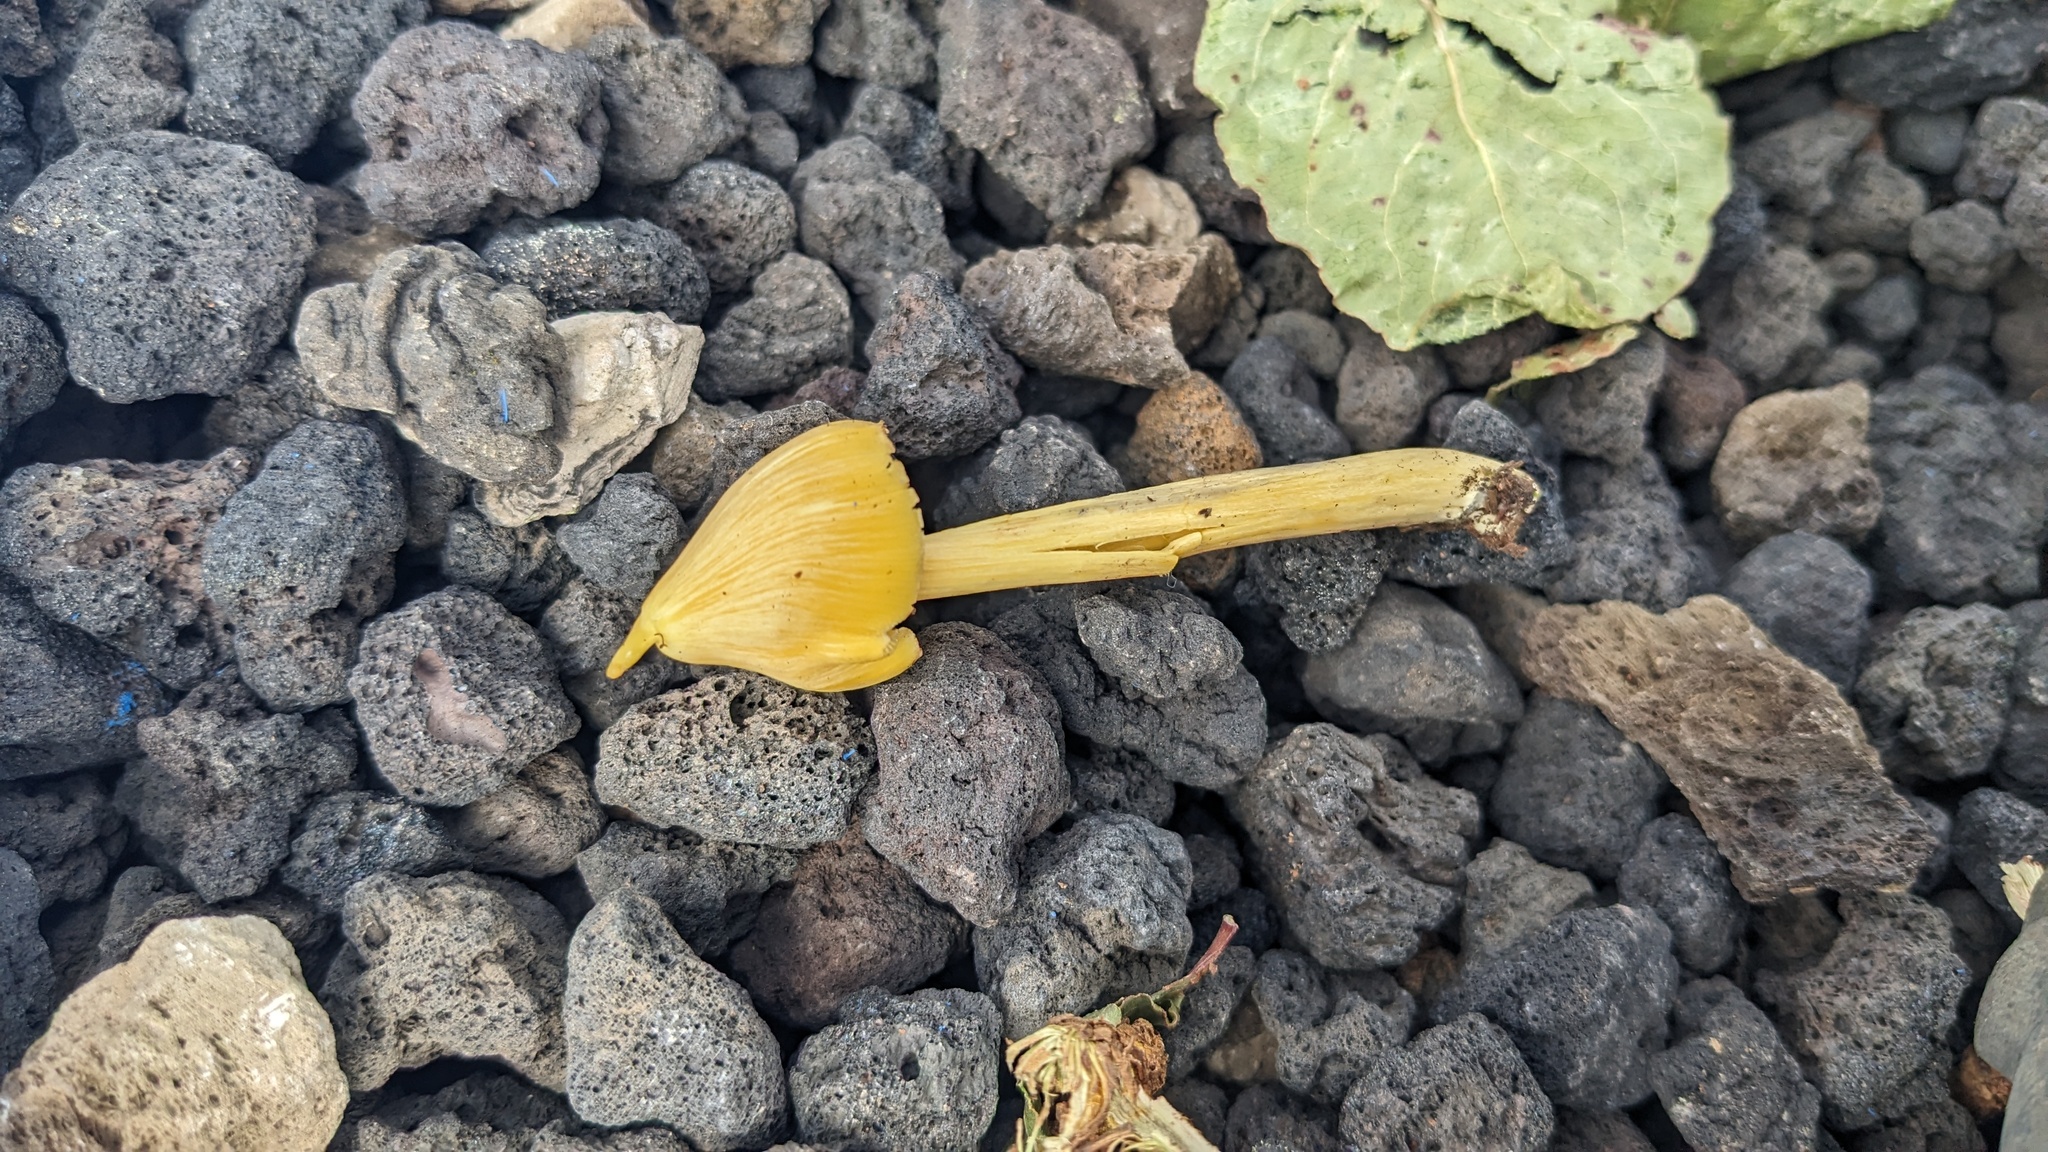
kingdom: Fungi
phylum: Basidiomycota
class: Agaricomycetes
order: Agaricales
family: Entolomataceae
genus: Entoloma
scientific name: Entoloma murrayi
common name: Yellow unicorn entoloma
